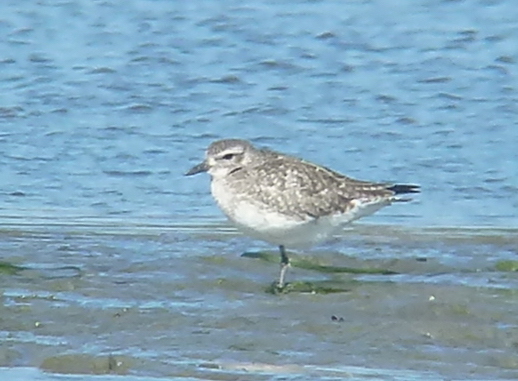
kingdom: Animalia
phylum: Chordata
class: Aves
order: Charadriiformes
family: Charadriidae
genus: Pluvialis
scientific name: Pluvialis squatarola
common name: Grey plover
